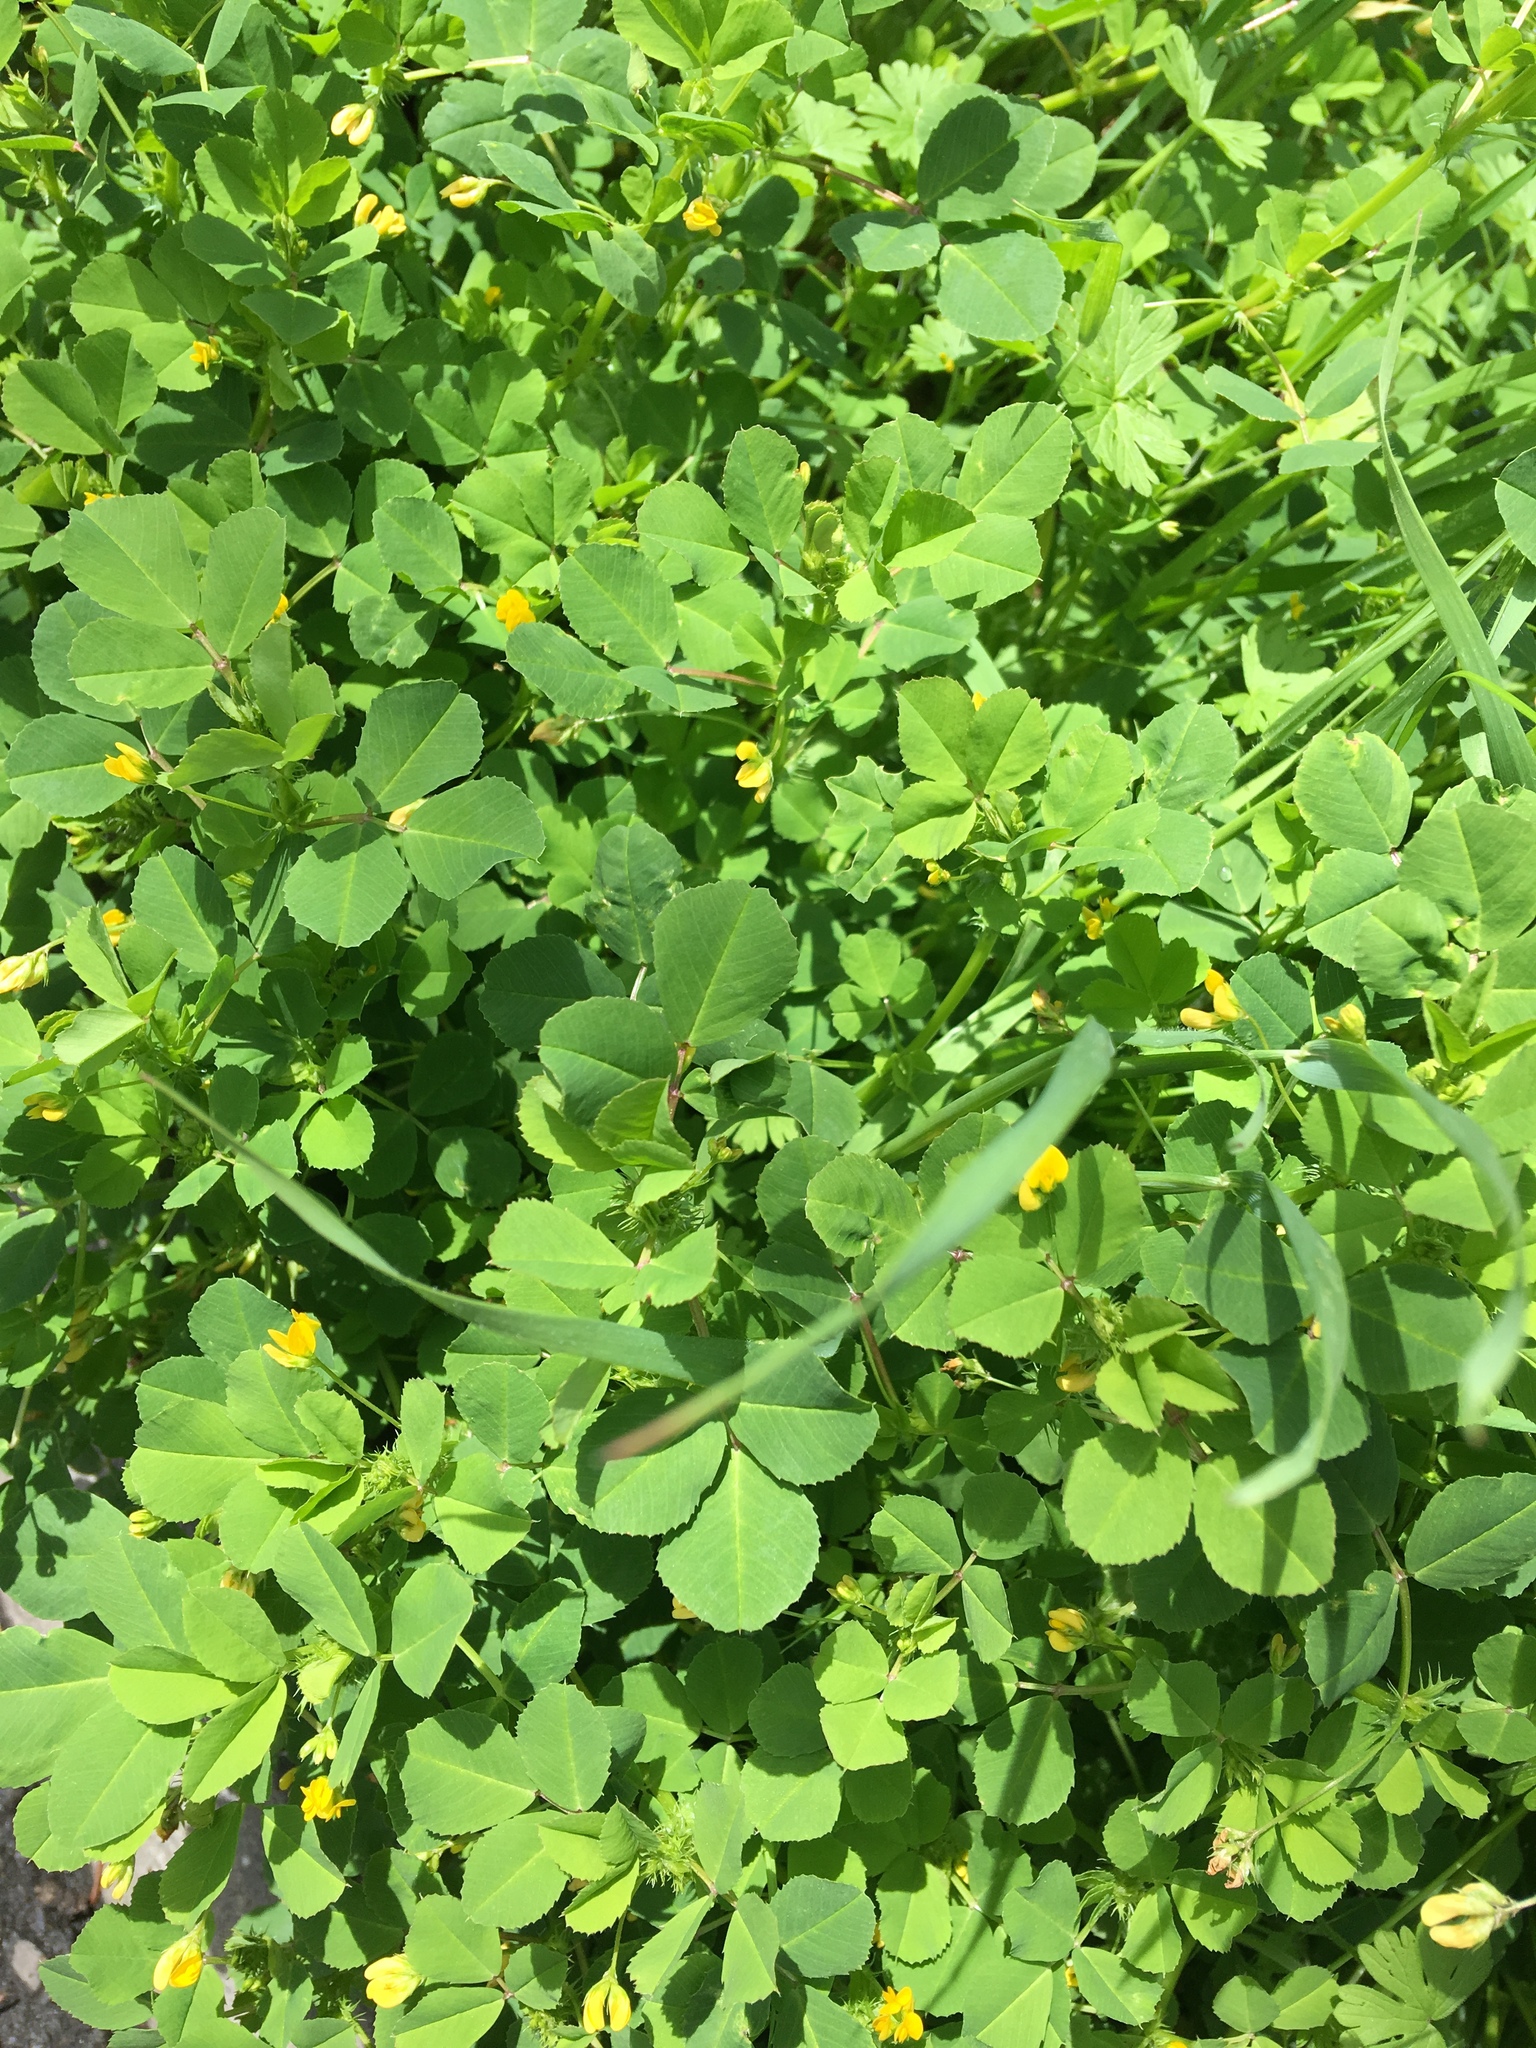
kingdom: Plantae
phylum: Tracheophyta
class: Magnoliopsida
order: Fabales
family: Fabaceae
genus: Medicago
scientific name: Medicago polymorpha
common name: Burclover
